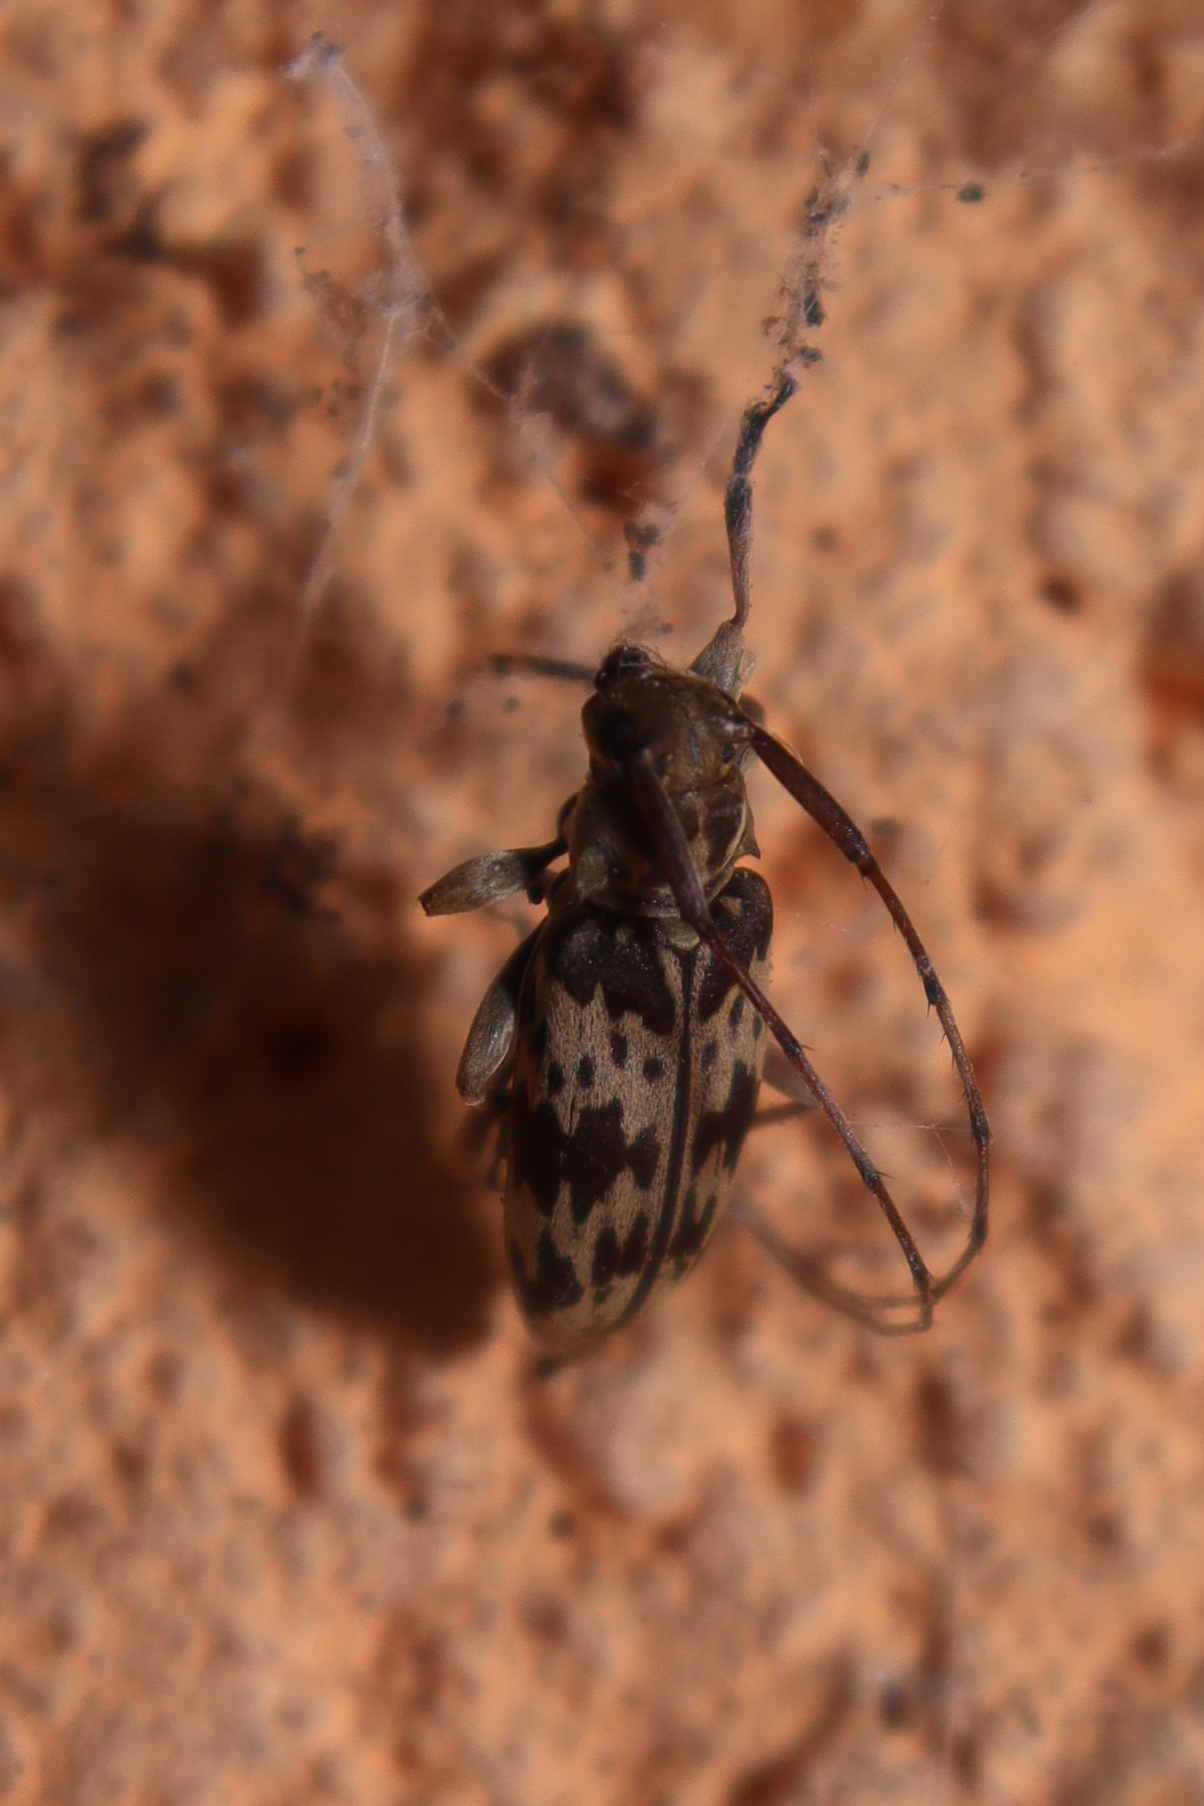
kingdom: Animalia
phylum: Arthropoda
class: Insecta
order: Coleoptera
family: Cerambycidae
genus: Lepturges
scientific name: Lepturges dorotheae
